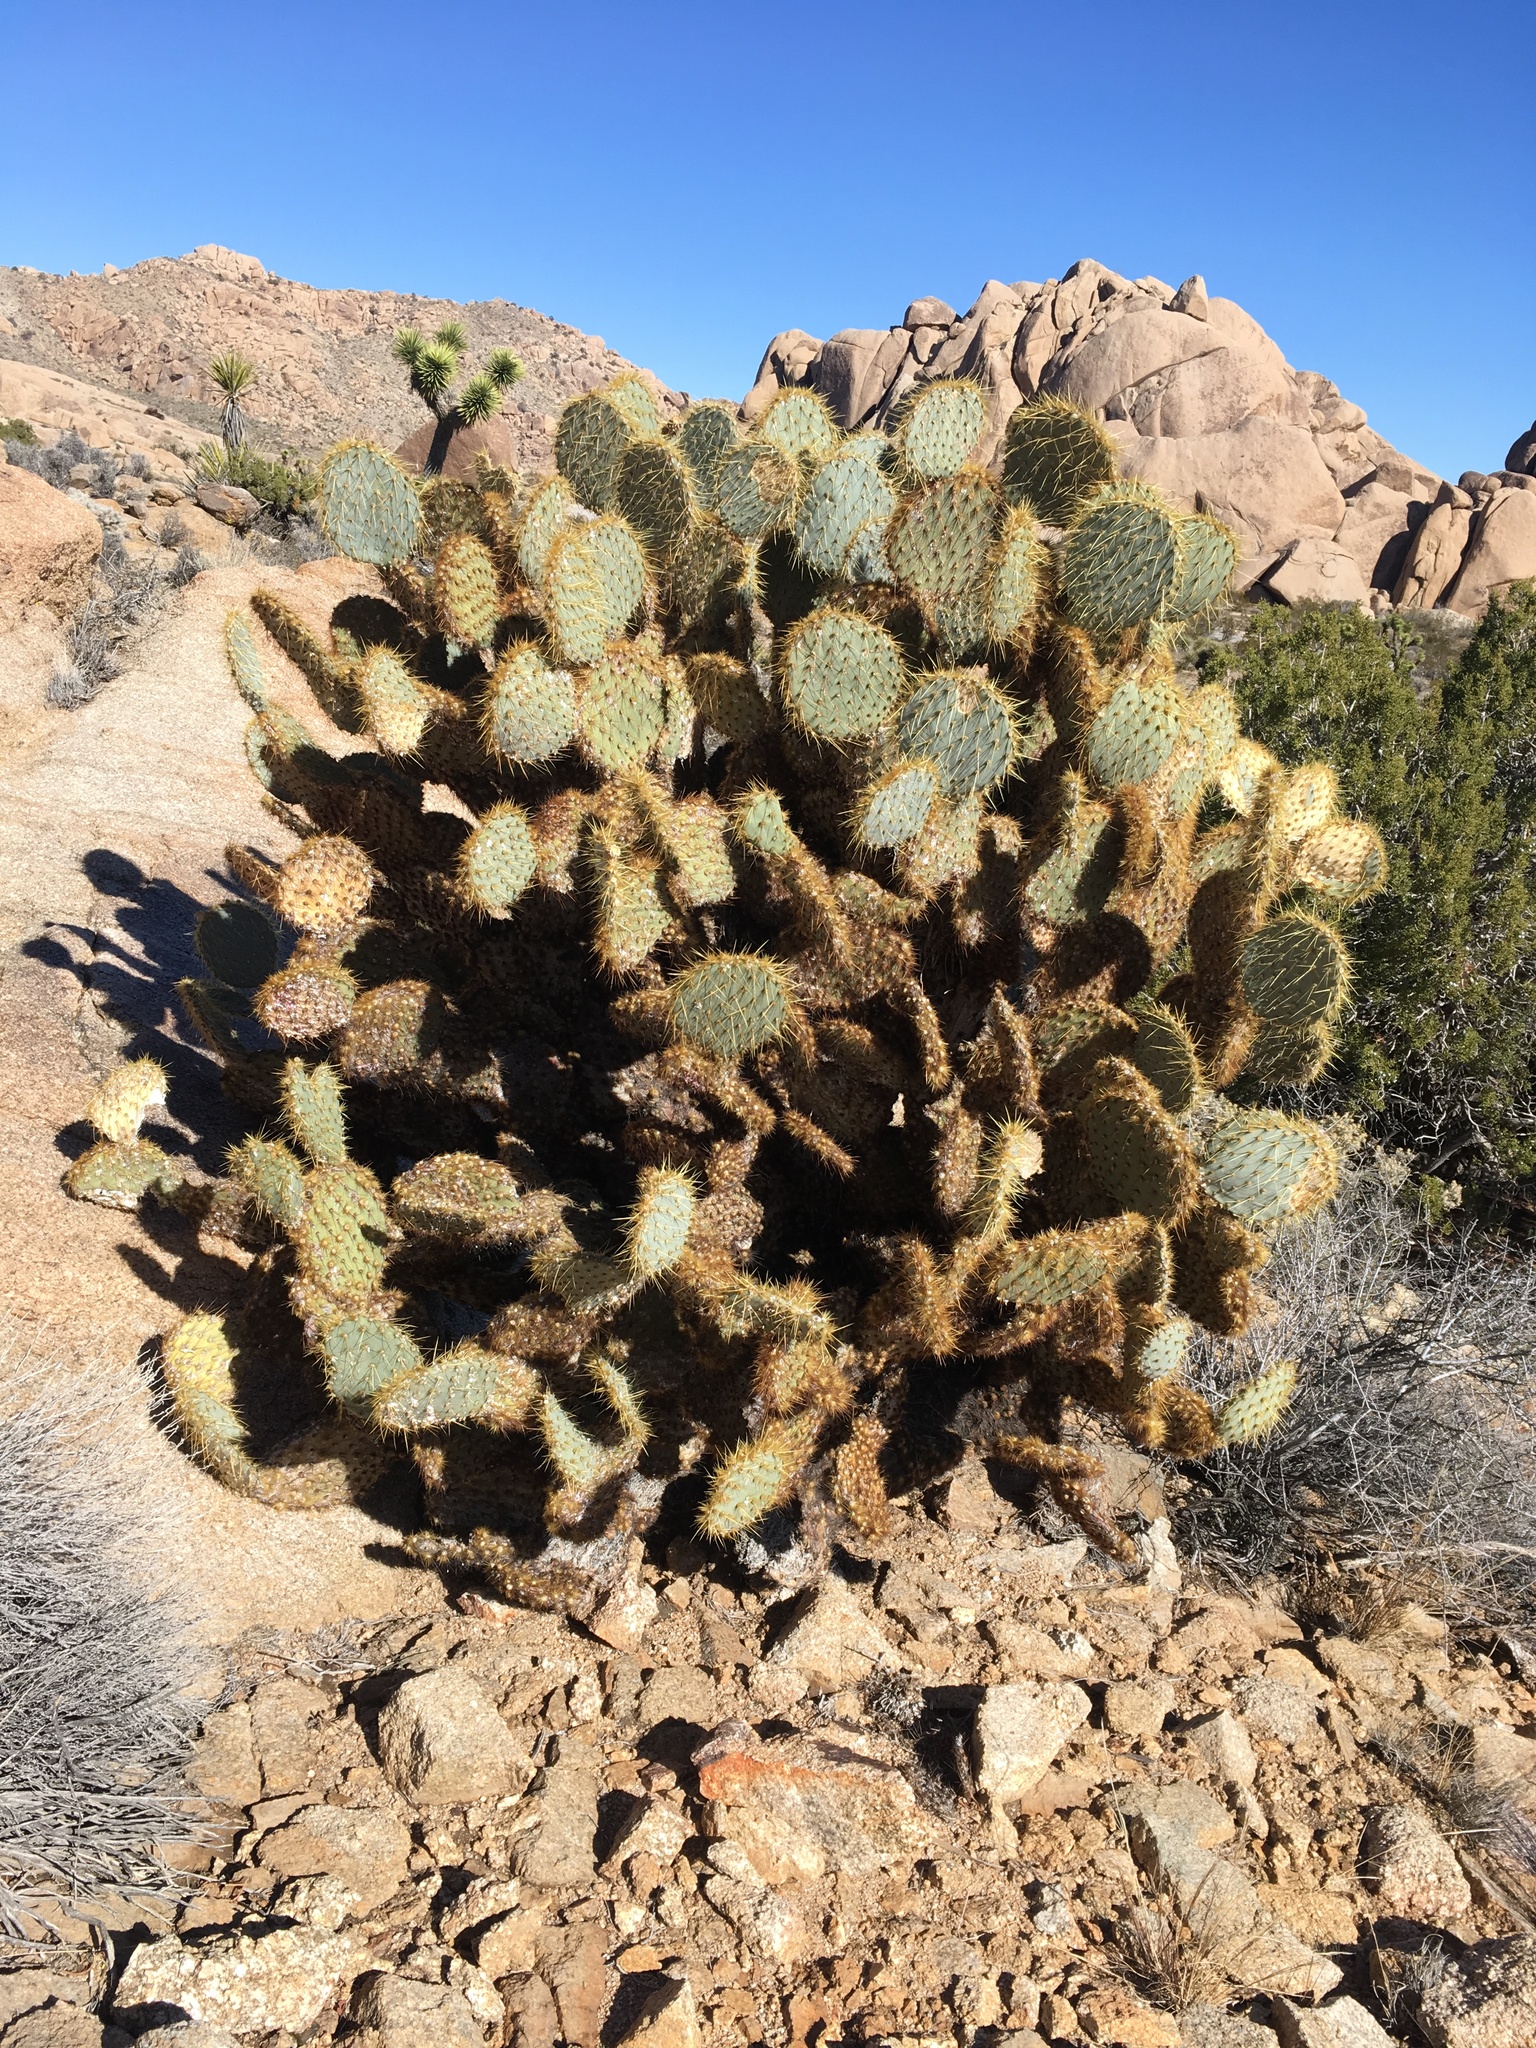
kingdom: Plantae
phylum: Tracheophyta
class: Magnoliopsida
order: Caryophyllales
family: Cactaceae
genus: Opuntia
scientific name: Opuntia chlorotica
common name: Dollar-joint prickly-pear
